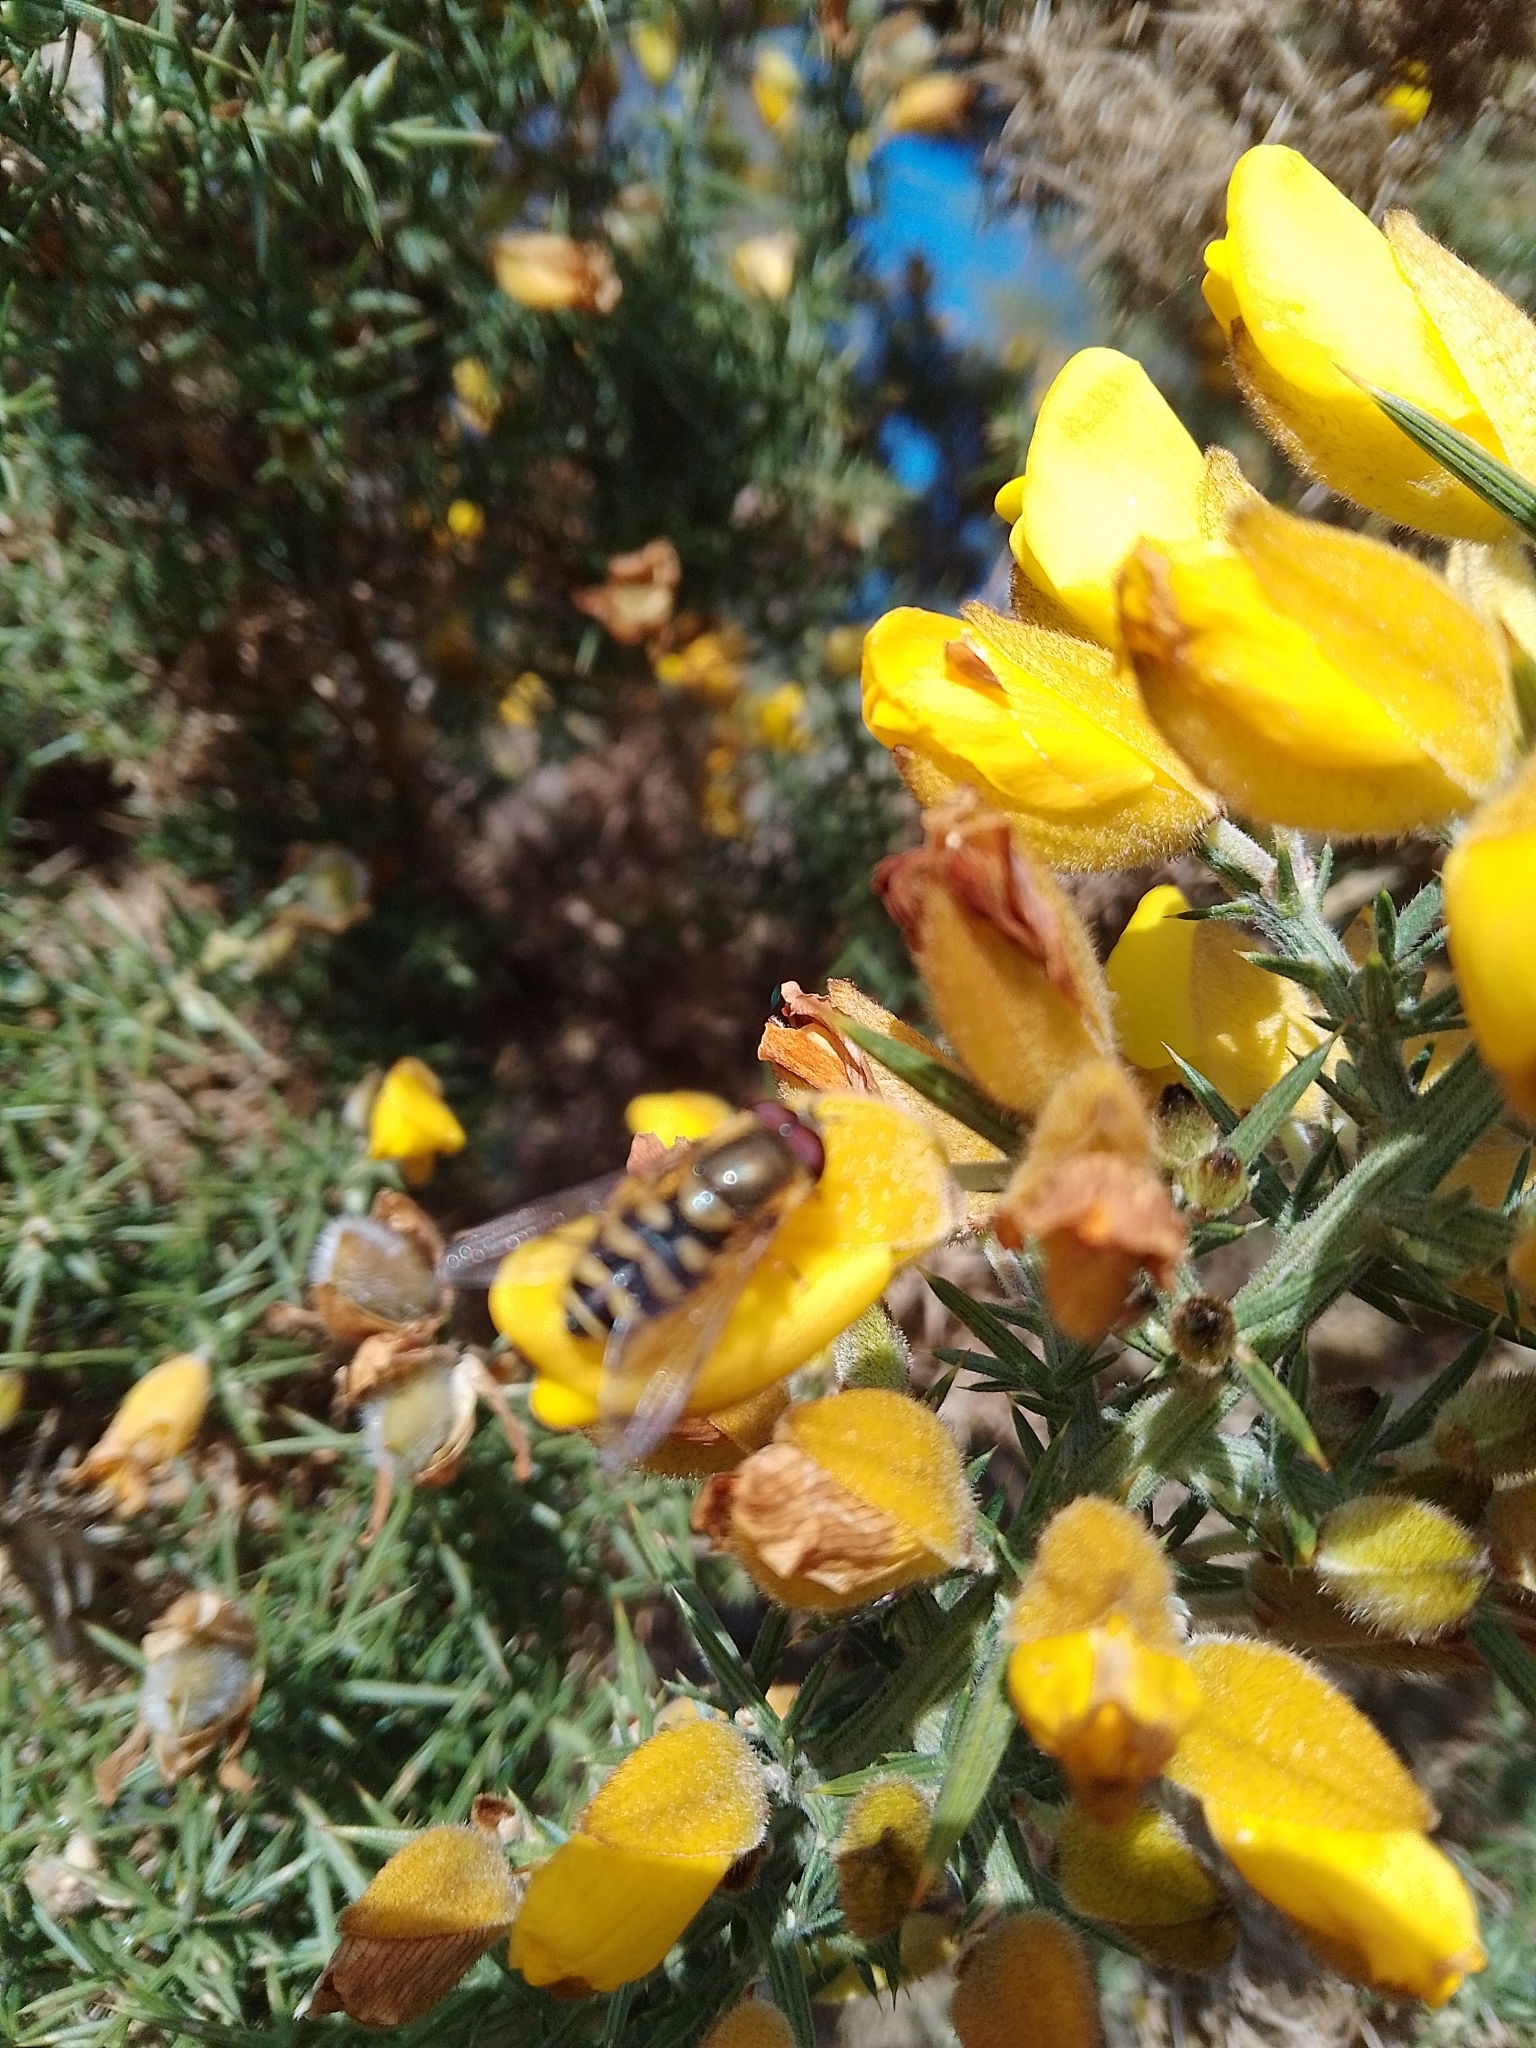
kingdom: Animalia
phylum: Arthropoda
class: Insecta
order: Diptera
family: Syrphidae
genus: Syrphus
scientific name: Syrphus
